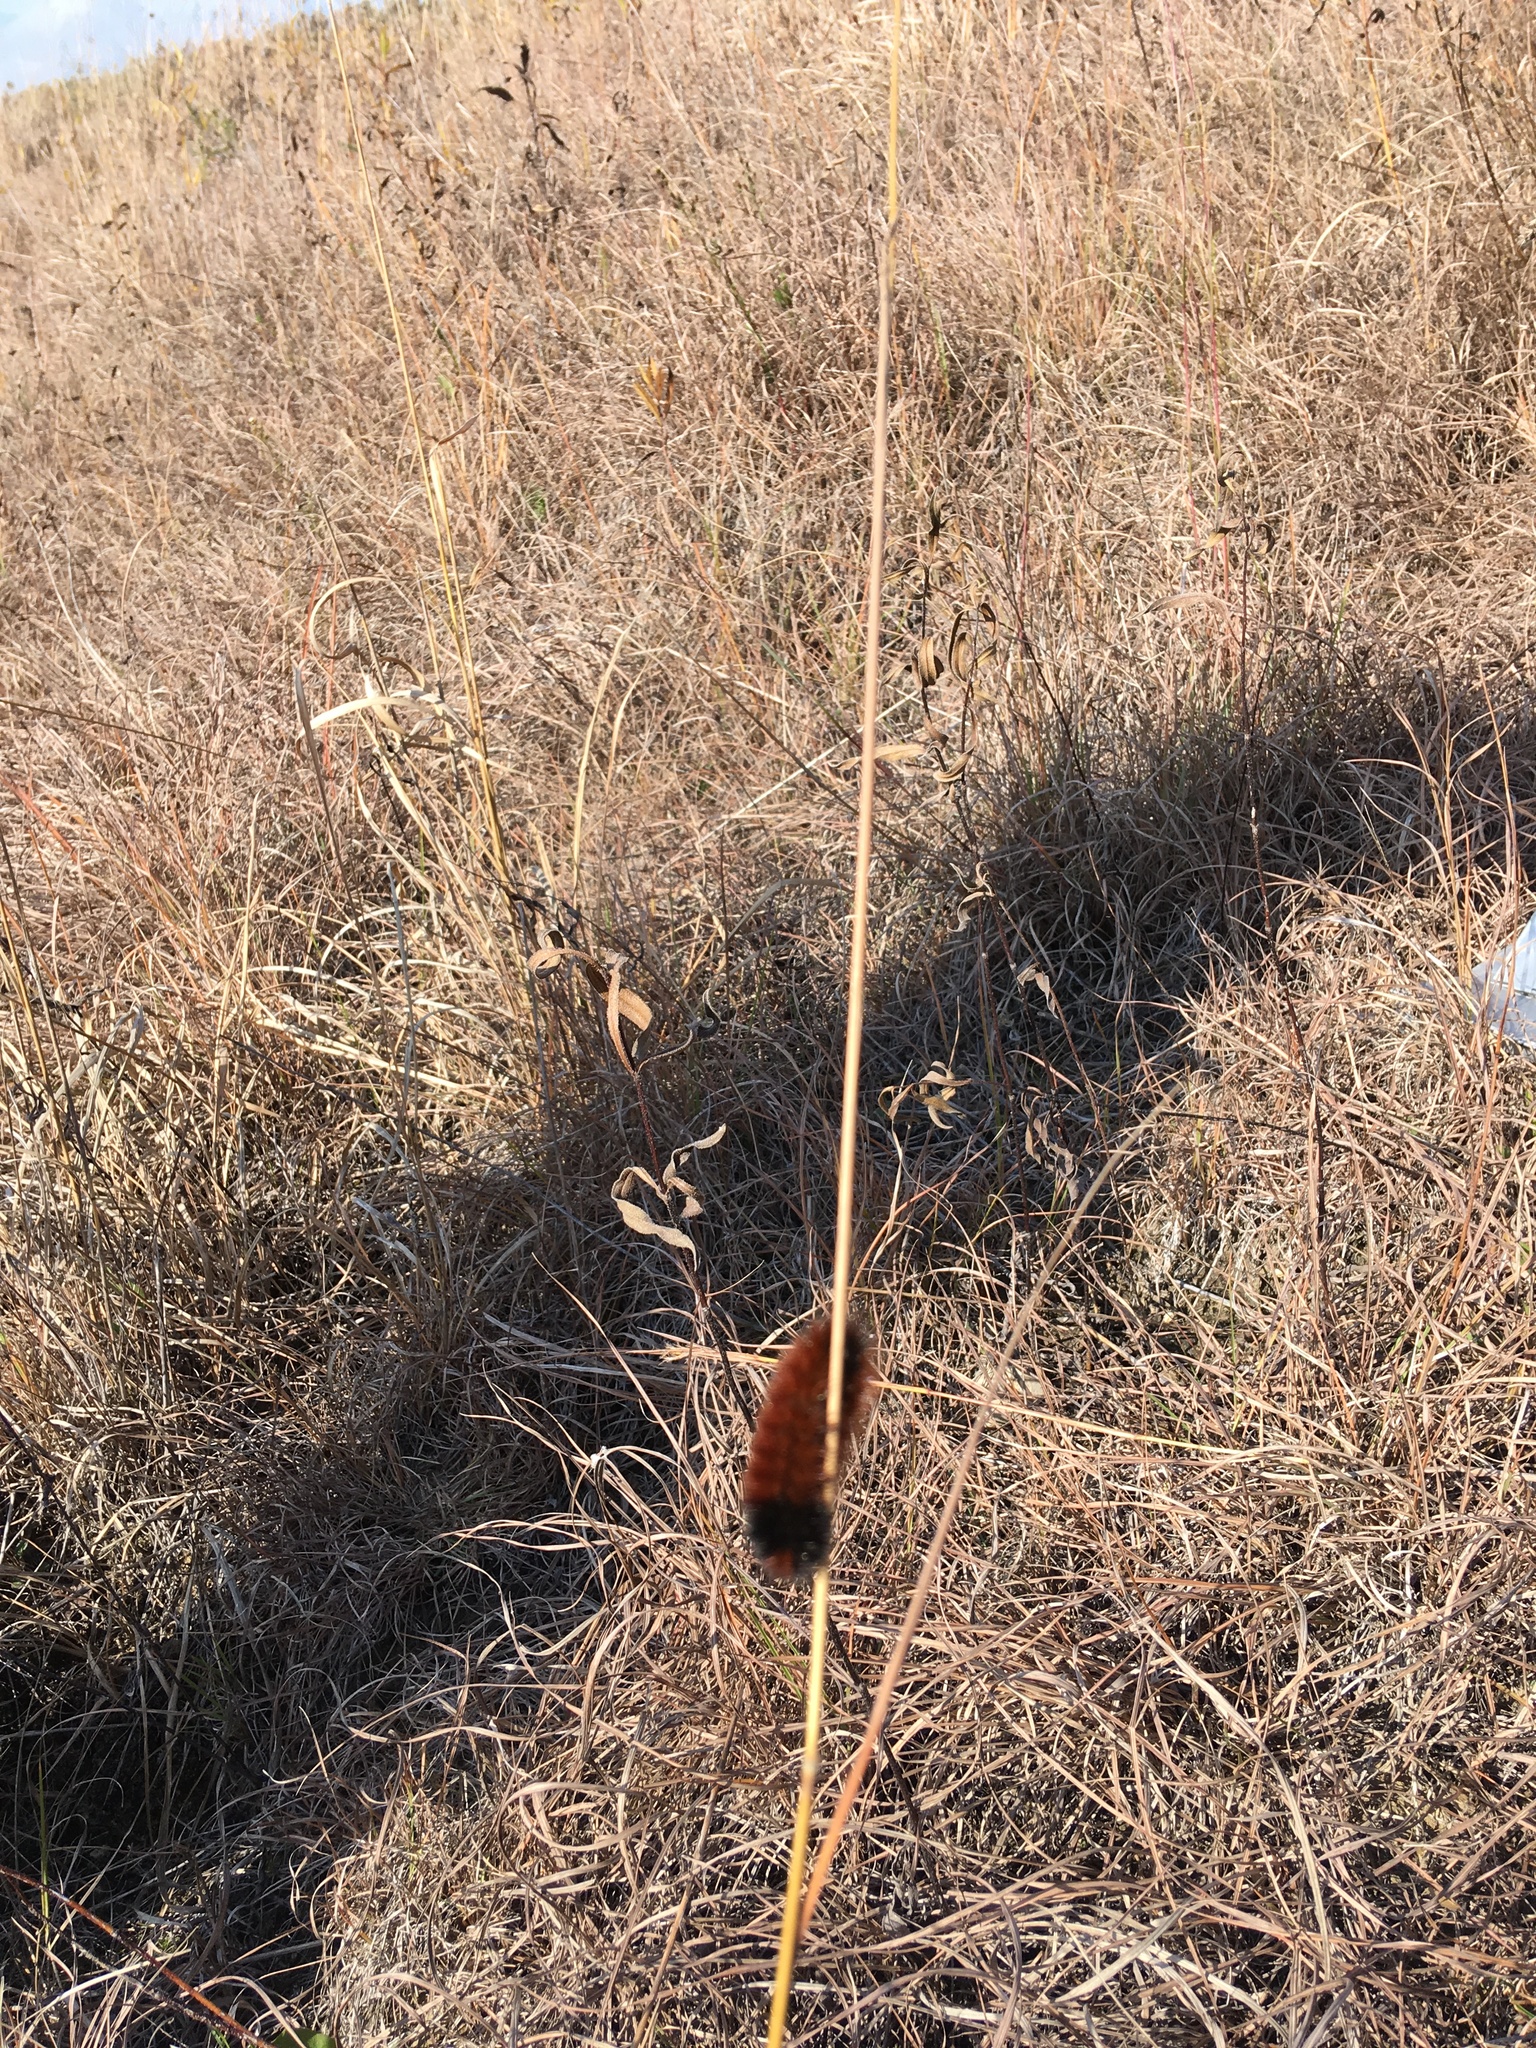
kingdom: Animalia
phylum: Arthropoda
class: Insecta
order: Lepidoptera
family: Erebidae
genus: Pyrrharctia
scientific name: Pyrrharctia isabella
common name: Isabella tiger moth
